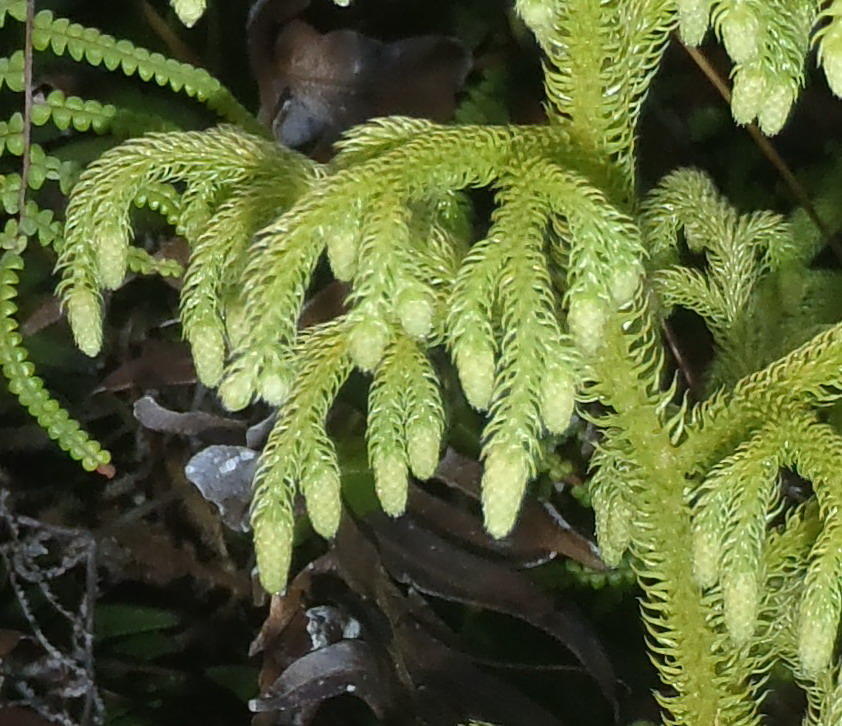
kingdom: Plantae
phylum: Tracheophyta
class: Lycopodiopsida
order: Lycopodiales
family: Lycopodiaceae
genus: Palhinhaea
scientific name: Palhinhaea cernua
